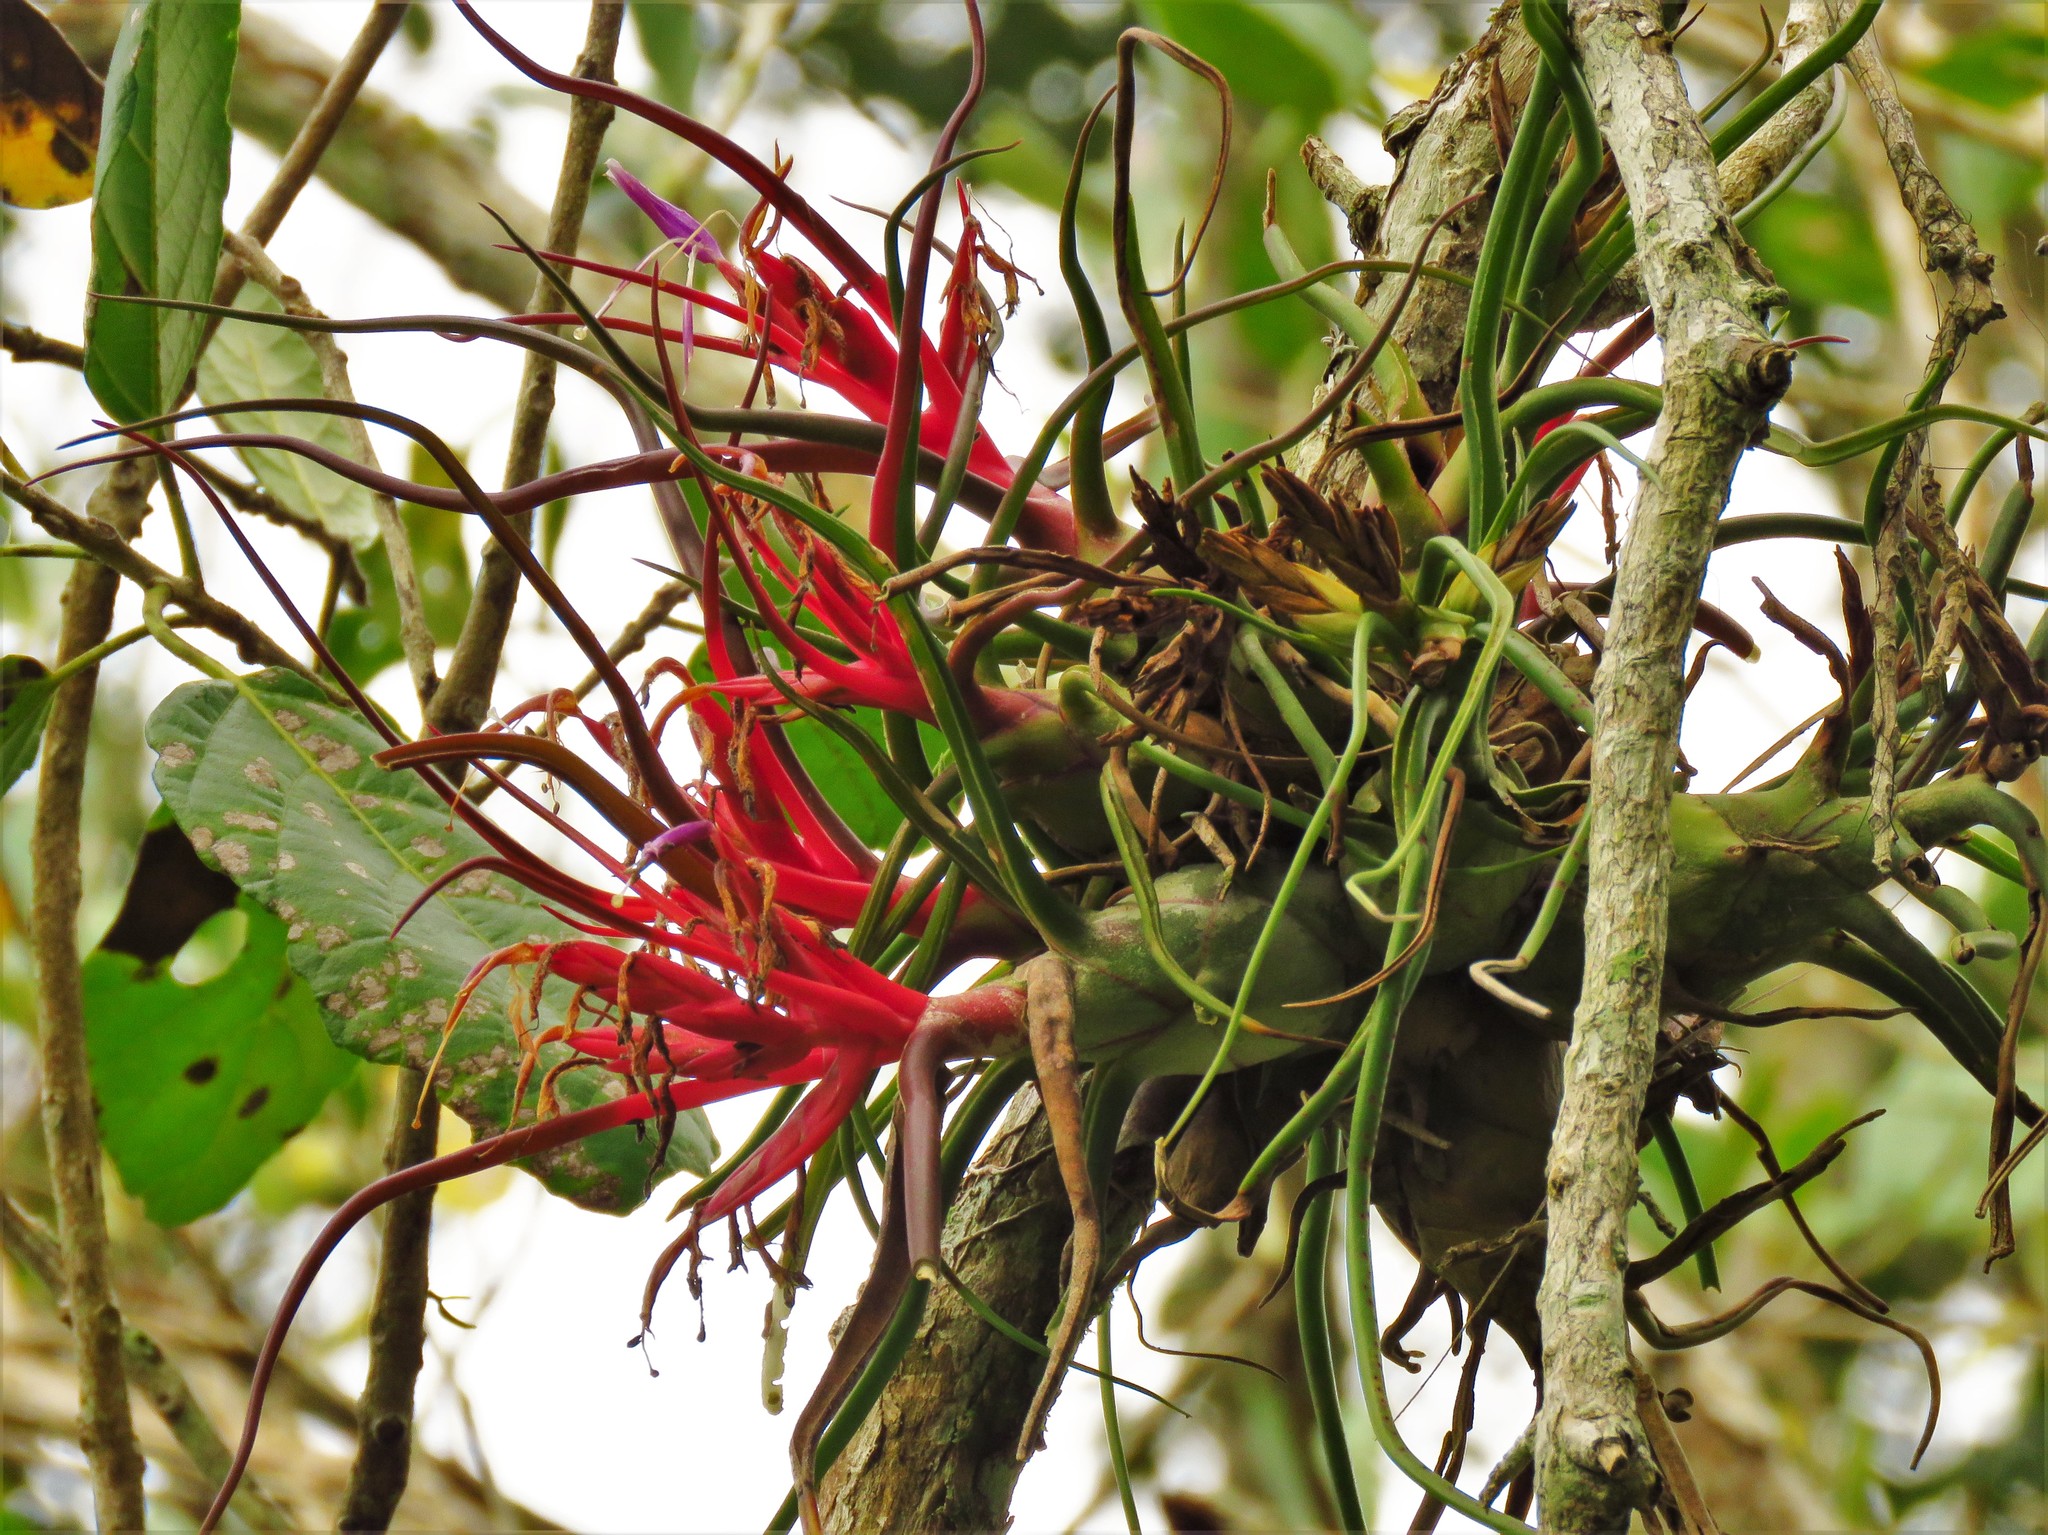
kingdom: Plantae
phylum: Tracheophyta
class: Liliopsida
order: Poales
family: Bromeliaceae
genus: Tillandsia
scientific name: Tillandsia bulbosa
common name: Bulbous airplant
